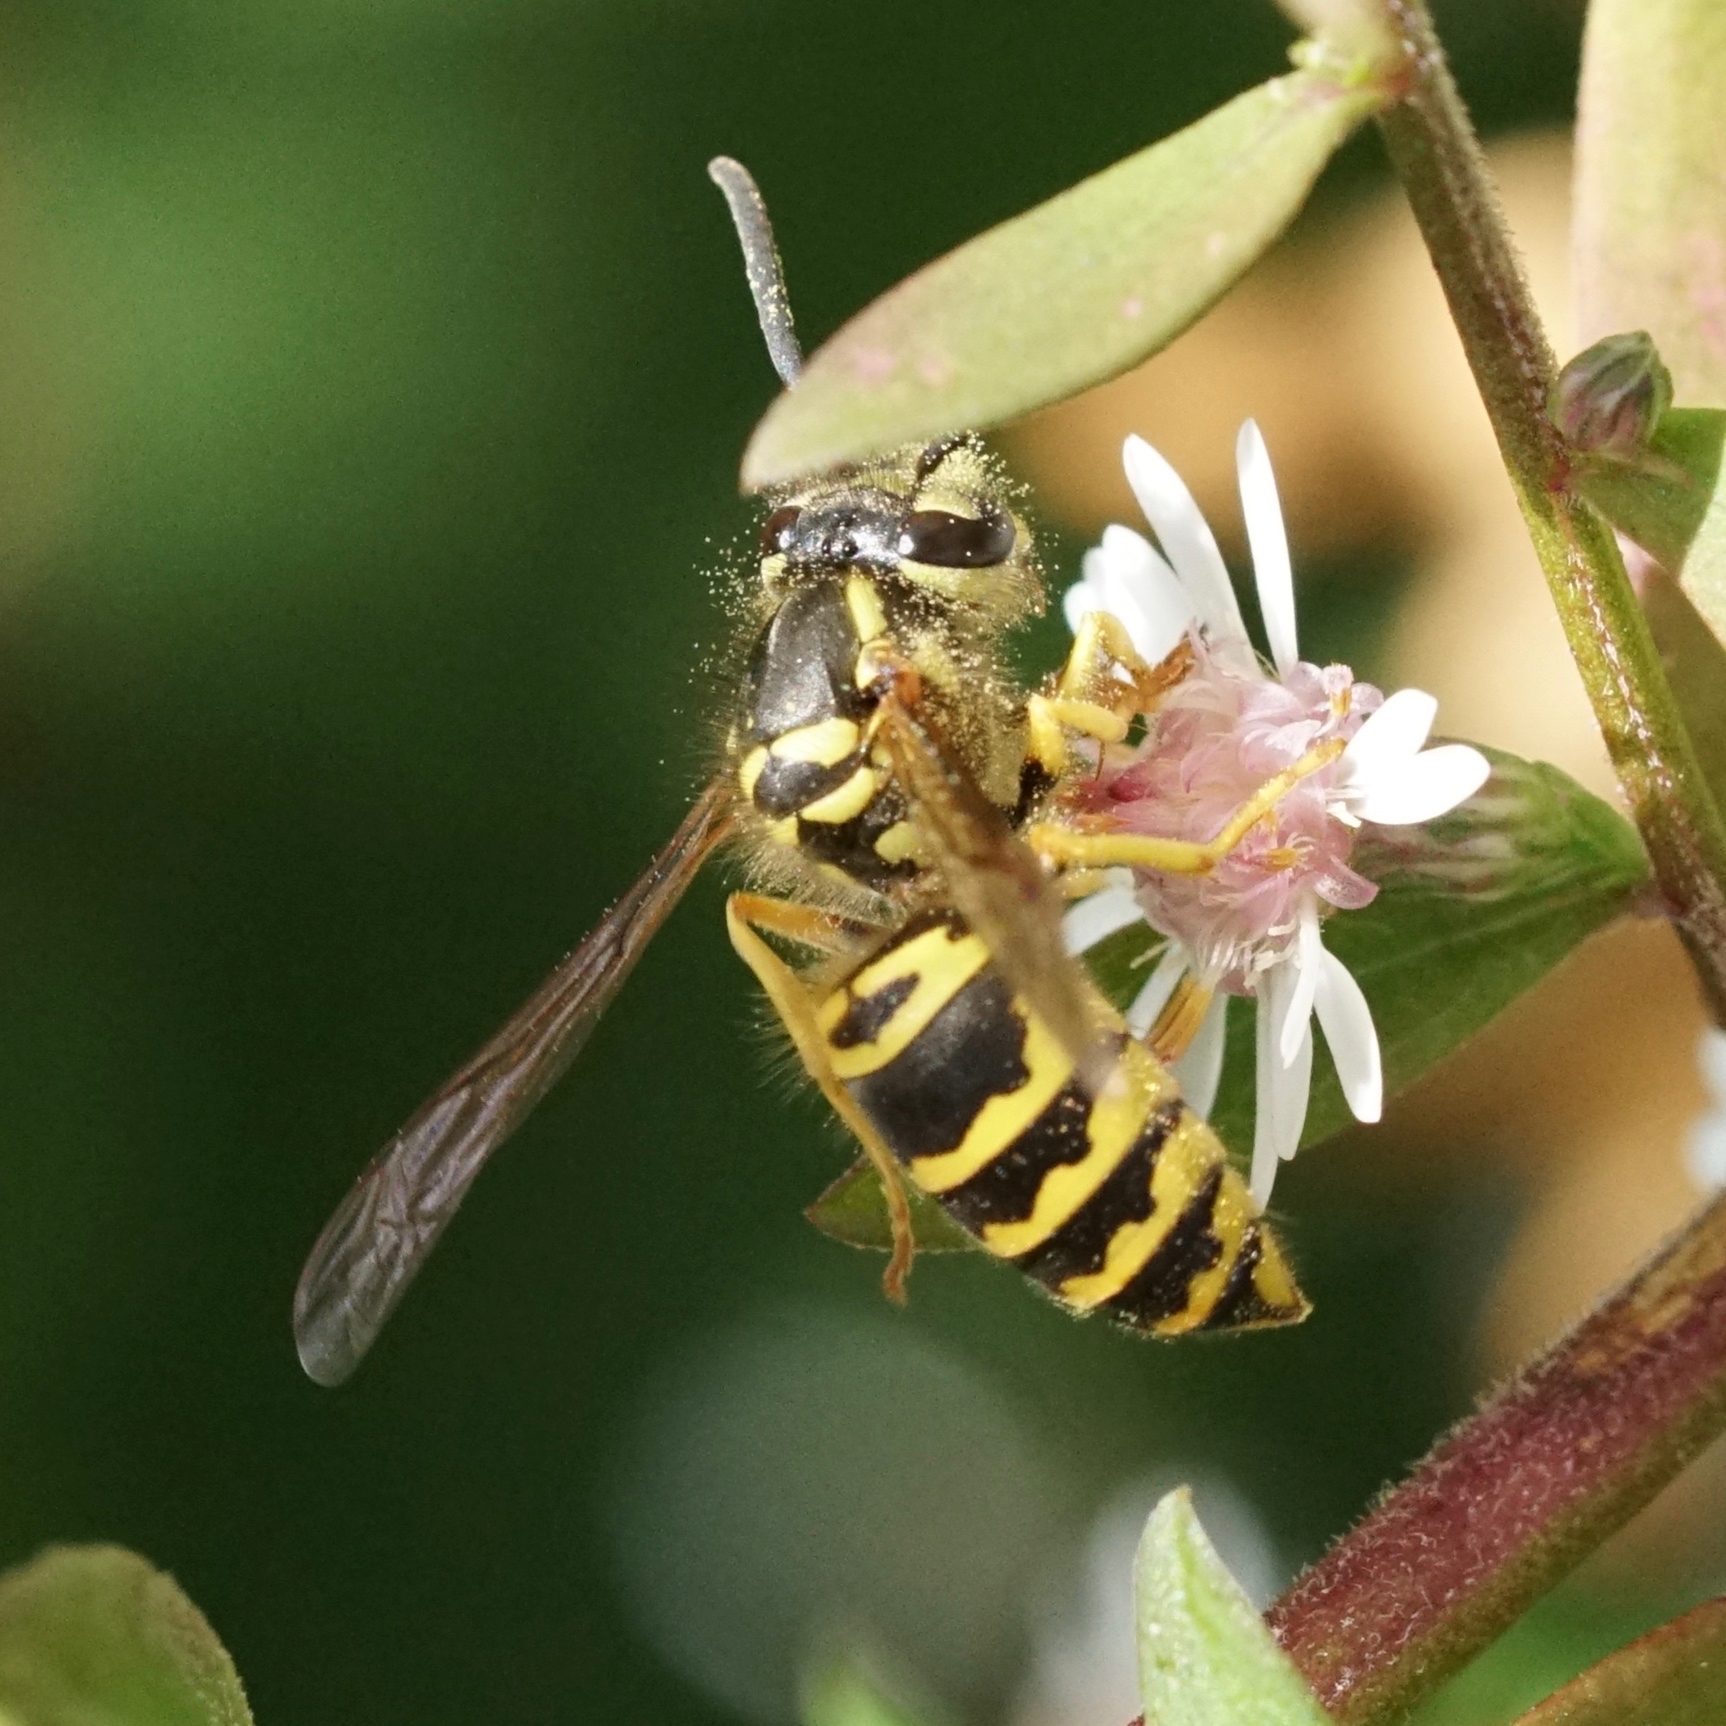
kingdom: Animalia
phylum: Arthropoda
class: Insecta
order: Hymenoptera
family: Vespidae
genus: Vespula
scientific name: Vespula maculifrons
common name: Eastern yellowjacket
